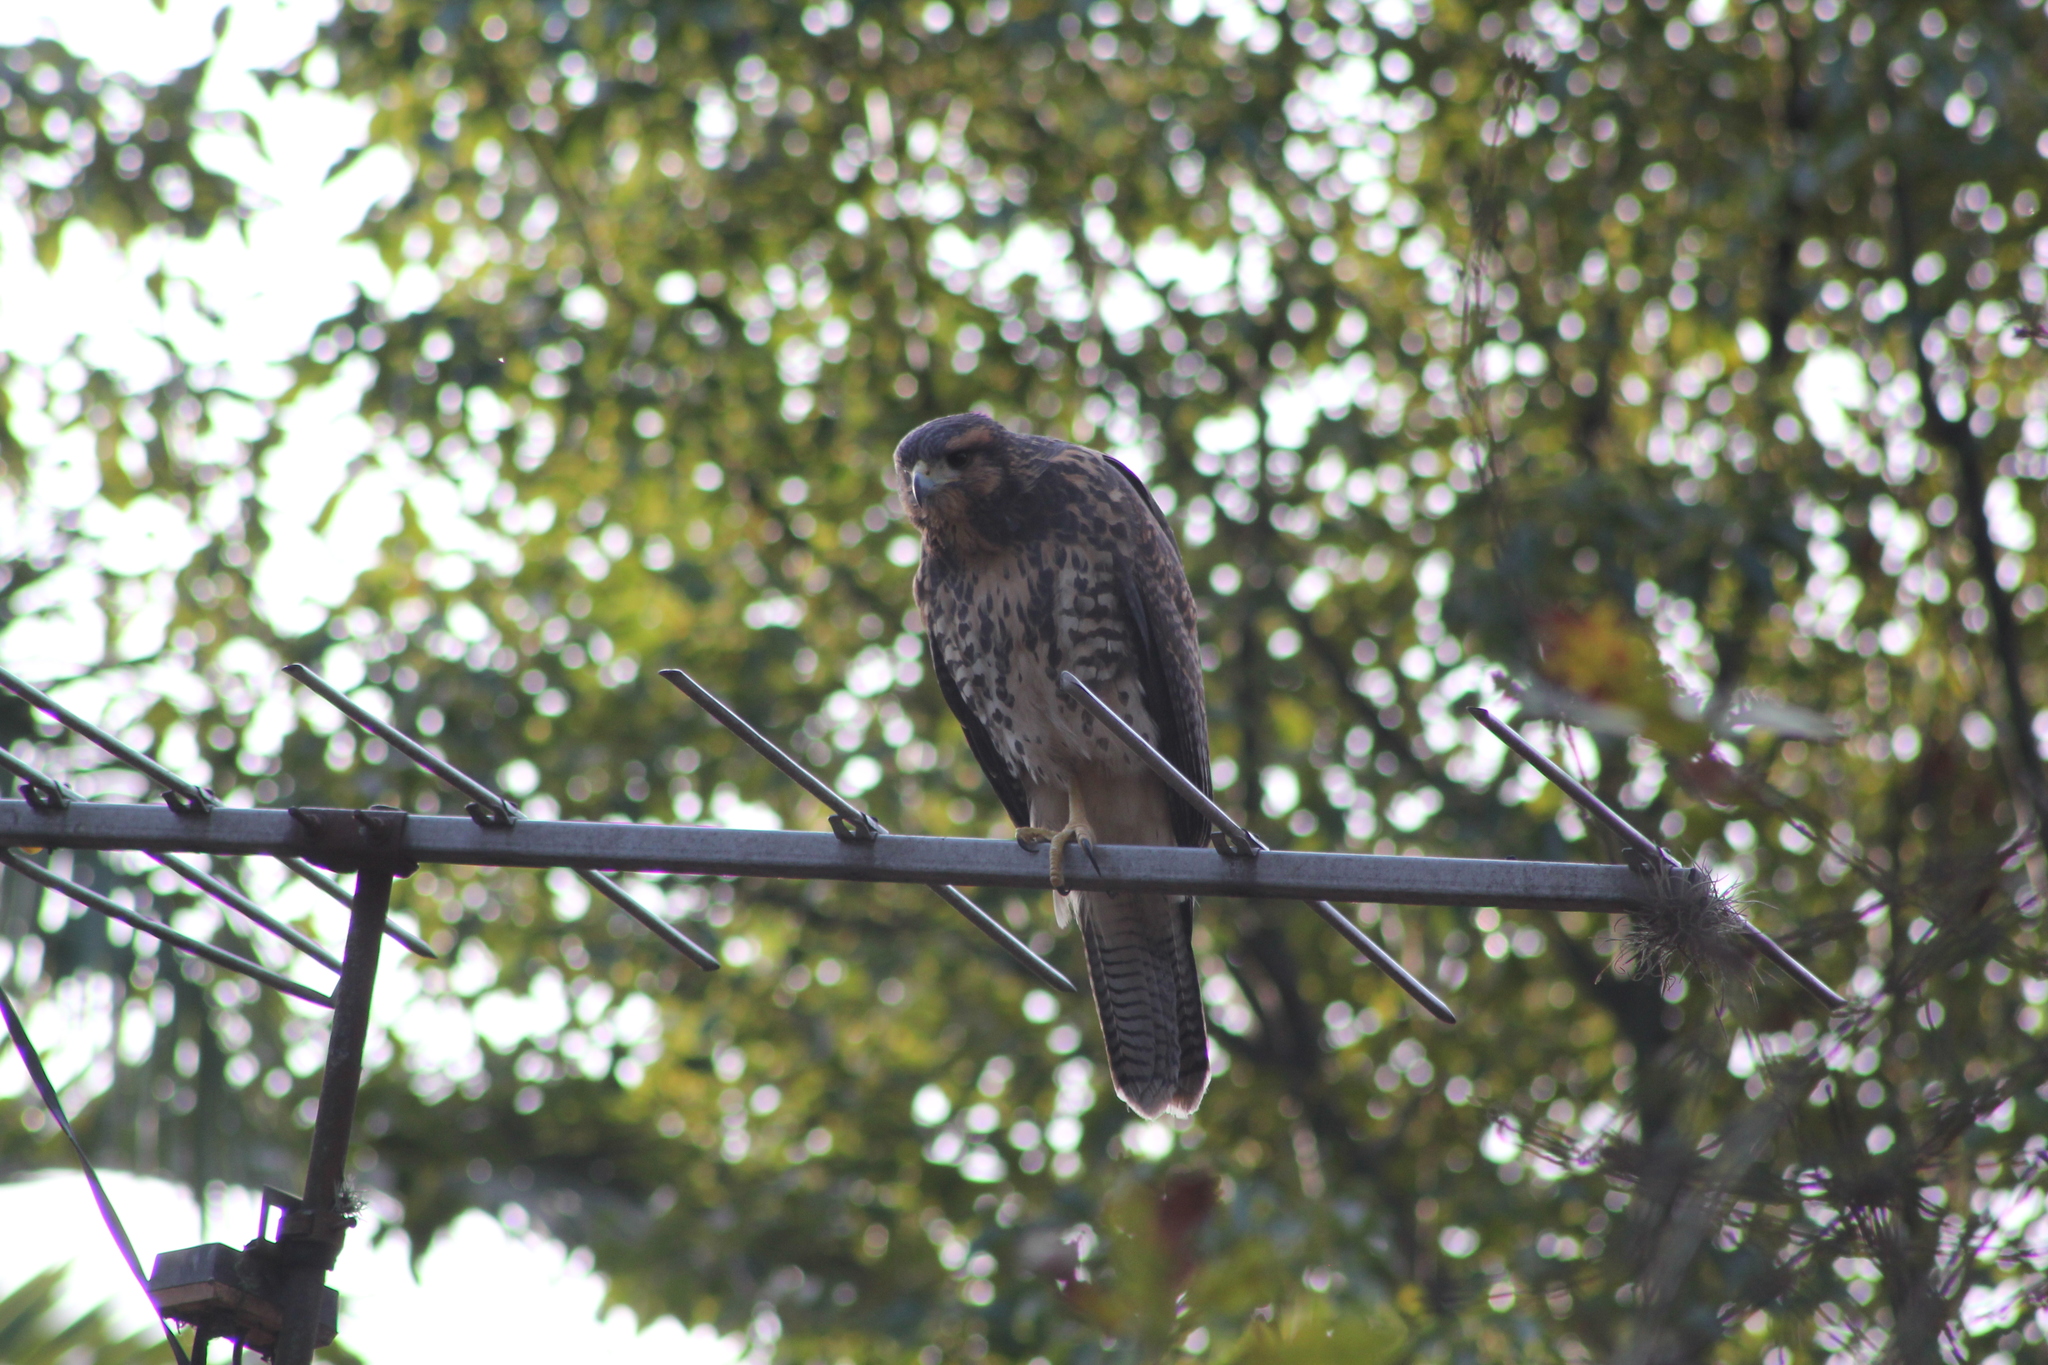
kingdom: Animalia
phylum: Chordata
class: Aves
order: Accipitriformes
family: Accipitridae
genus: Parabuteo
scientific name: Parabuteo unicinctus
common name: Harris's hawk
